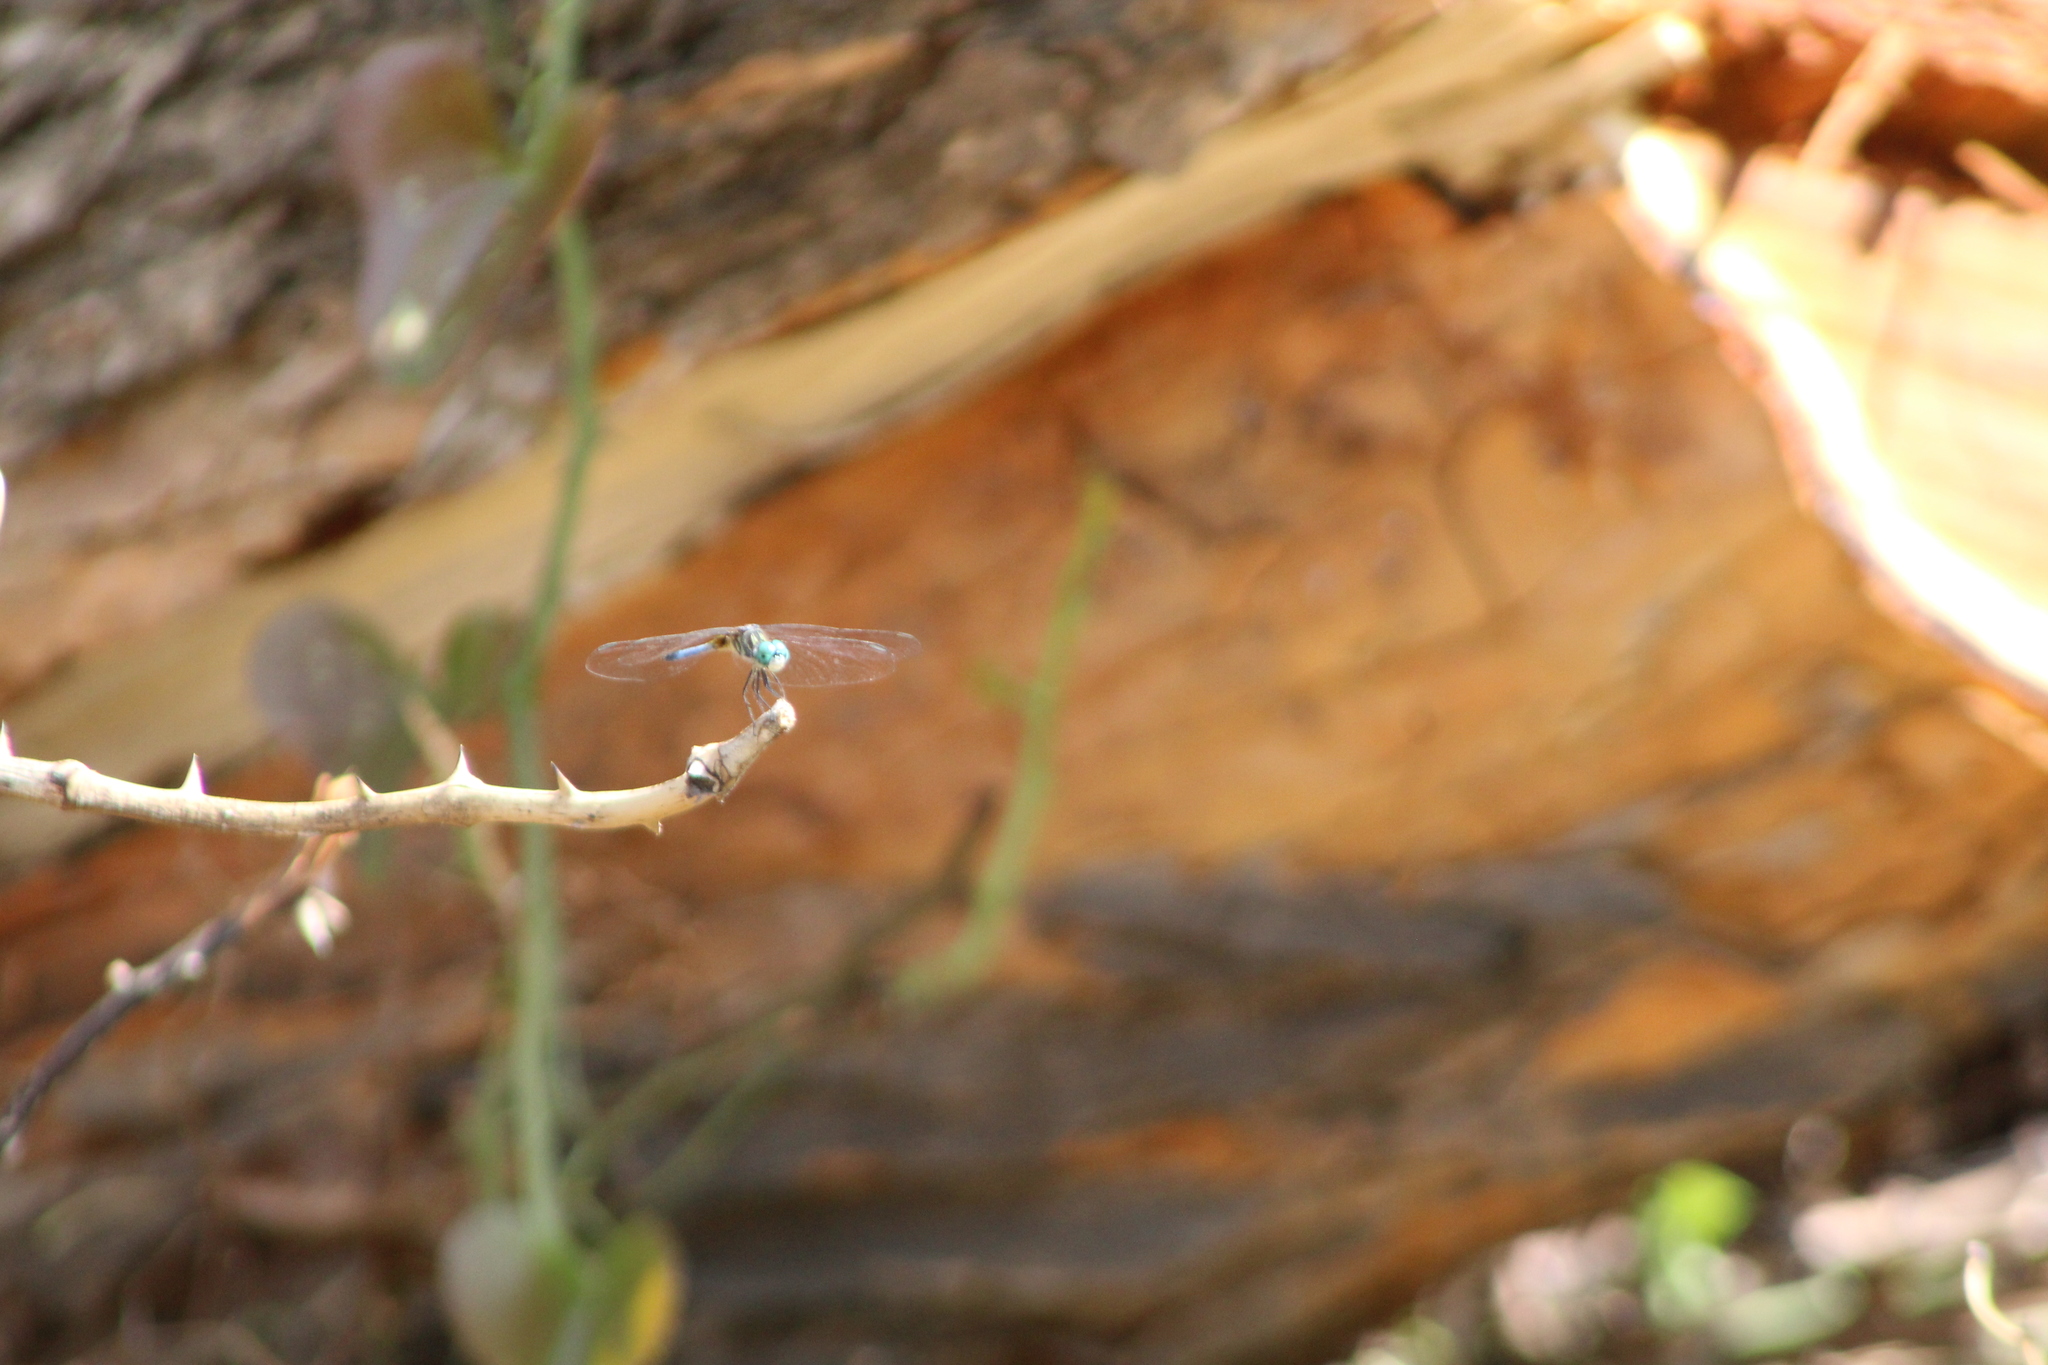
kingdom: Animalia
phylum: Arthropoda
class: Insecta
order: Odonata
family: Libellulidae
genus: Pachydiplax
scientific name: Pachydiplax longipennis
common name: Blue dasher
